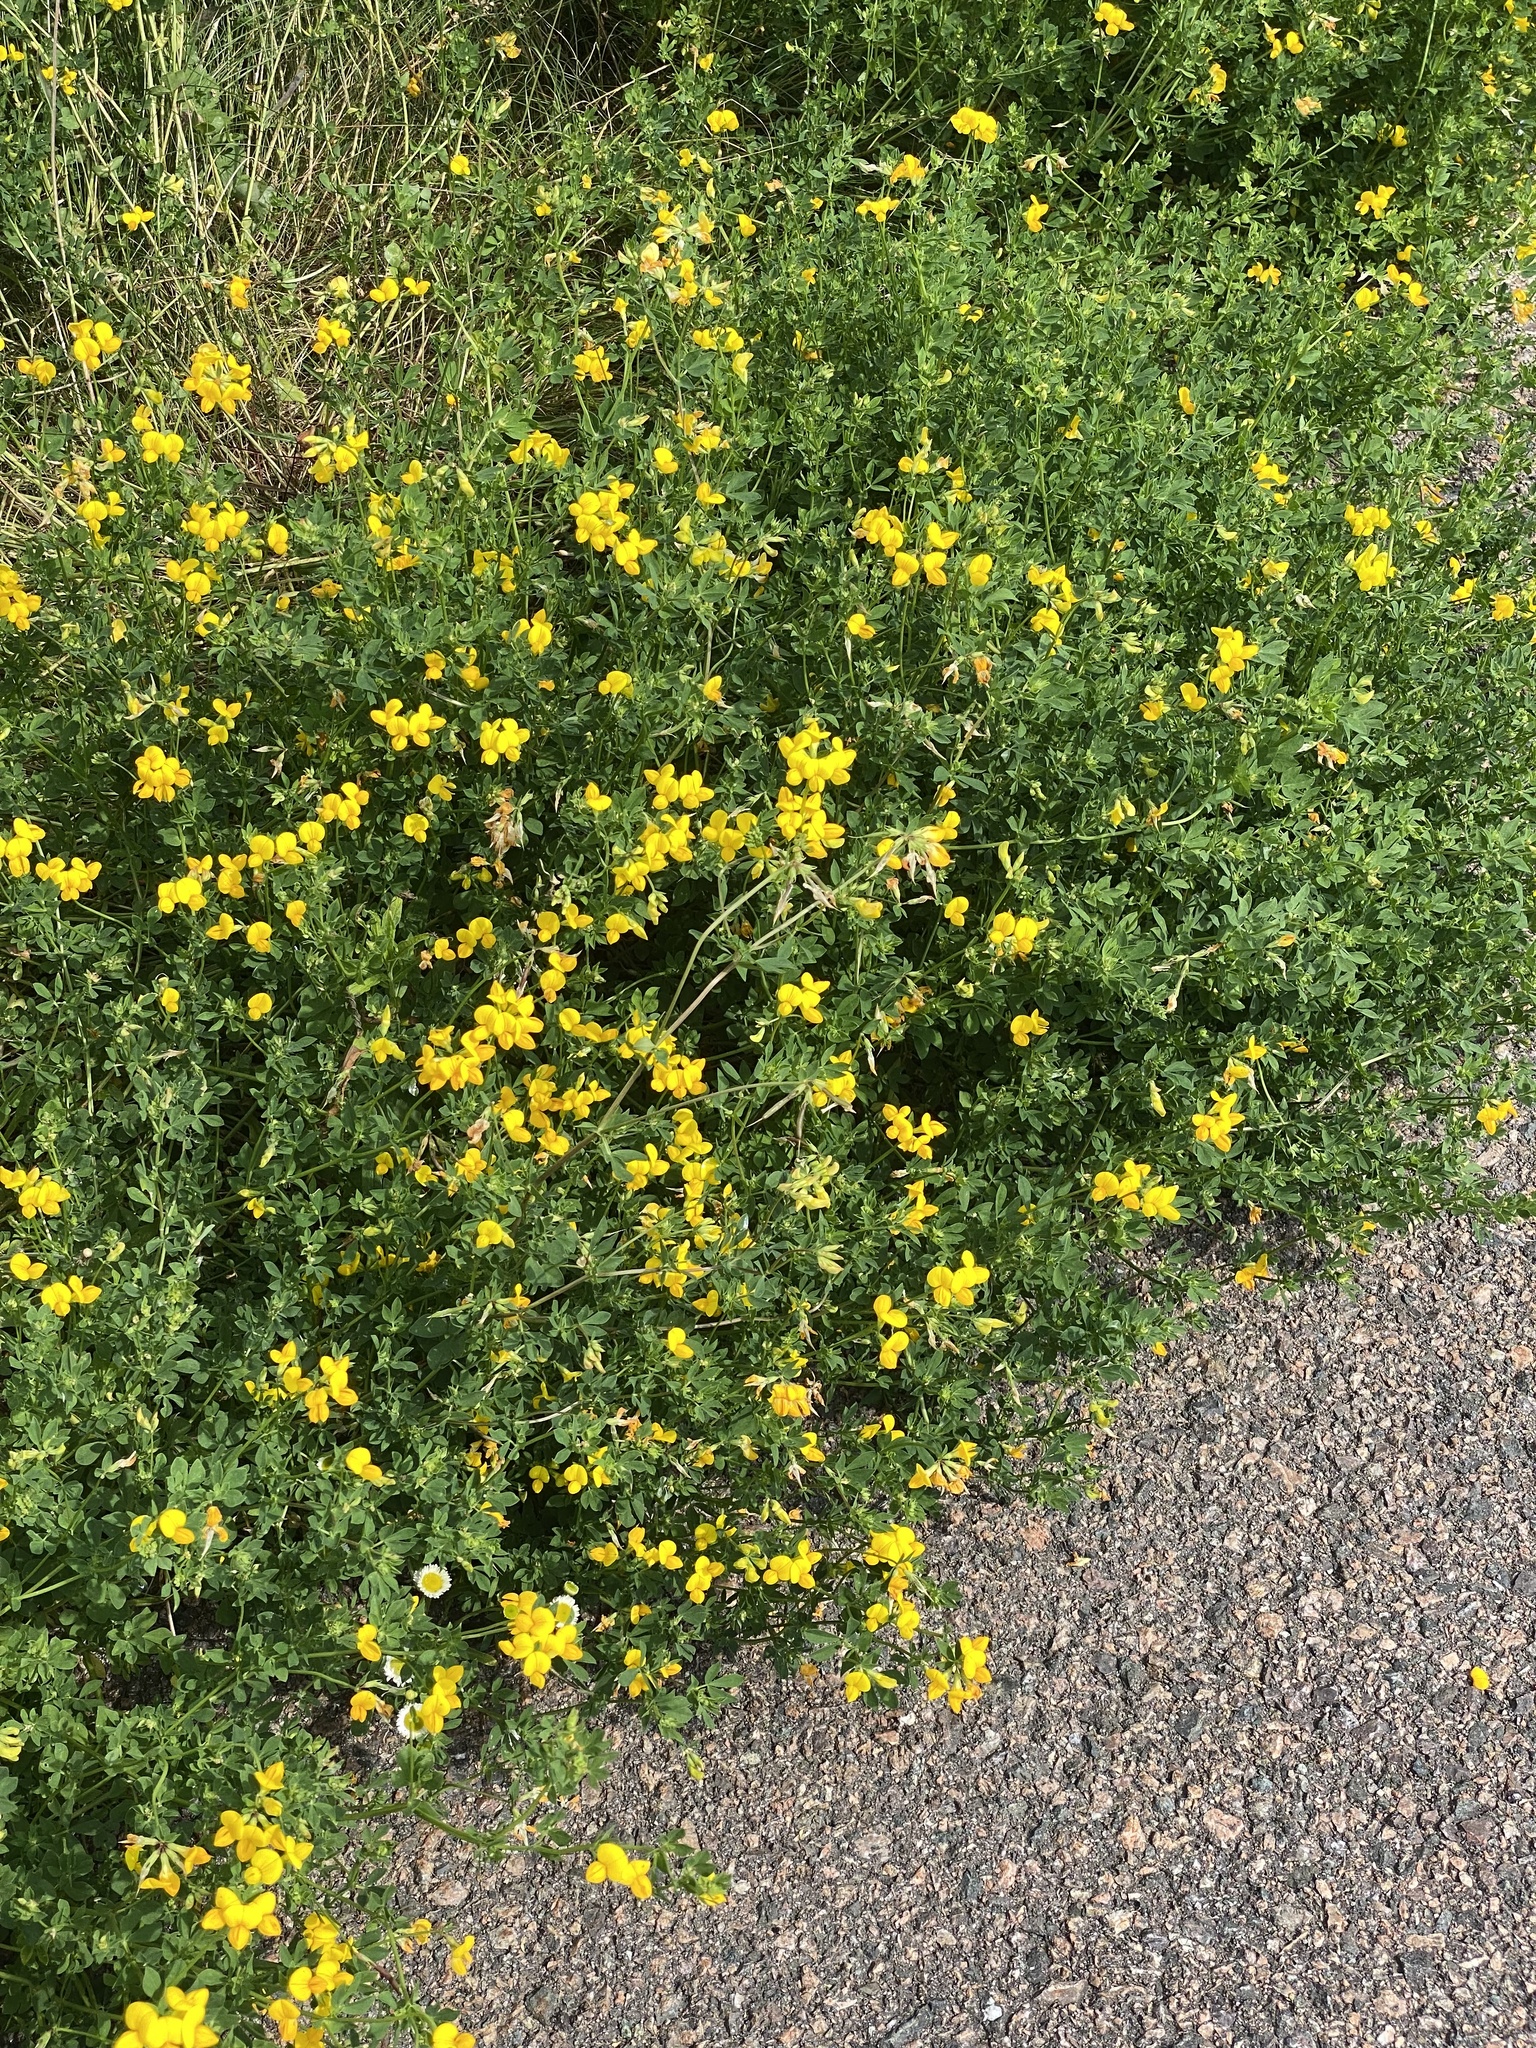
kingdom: Plantae
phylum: Tracheophyta
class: Magnoliopsida
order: Fabales
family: Fabaceae
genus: Lotus
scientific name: Lotus corniculatus
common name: Common bird's-foot-trefoil
